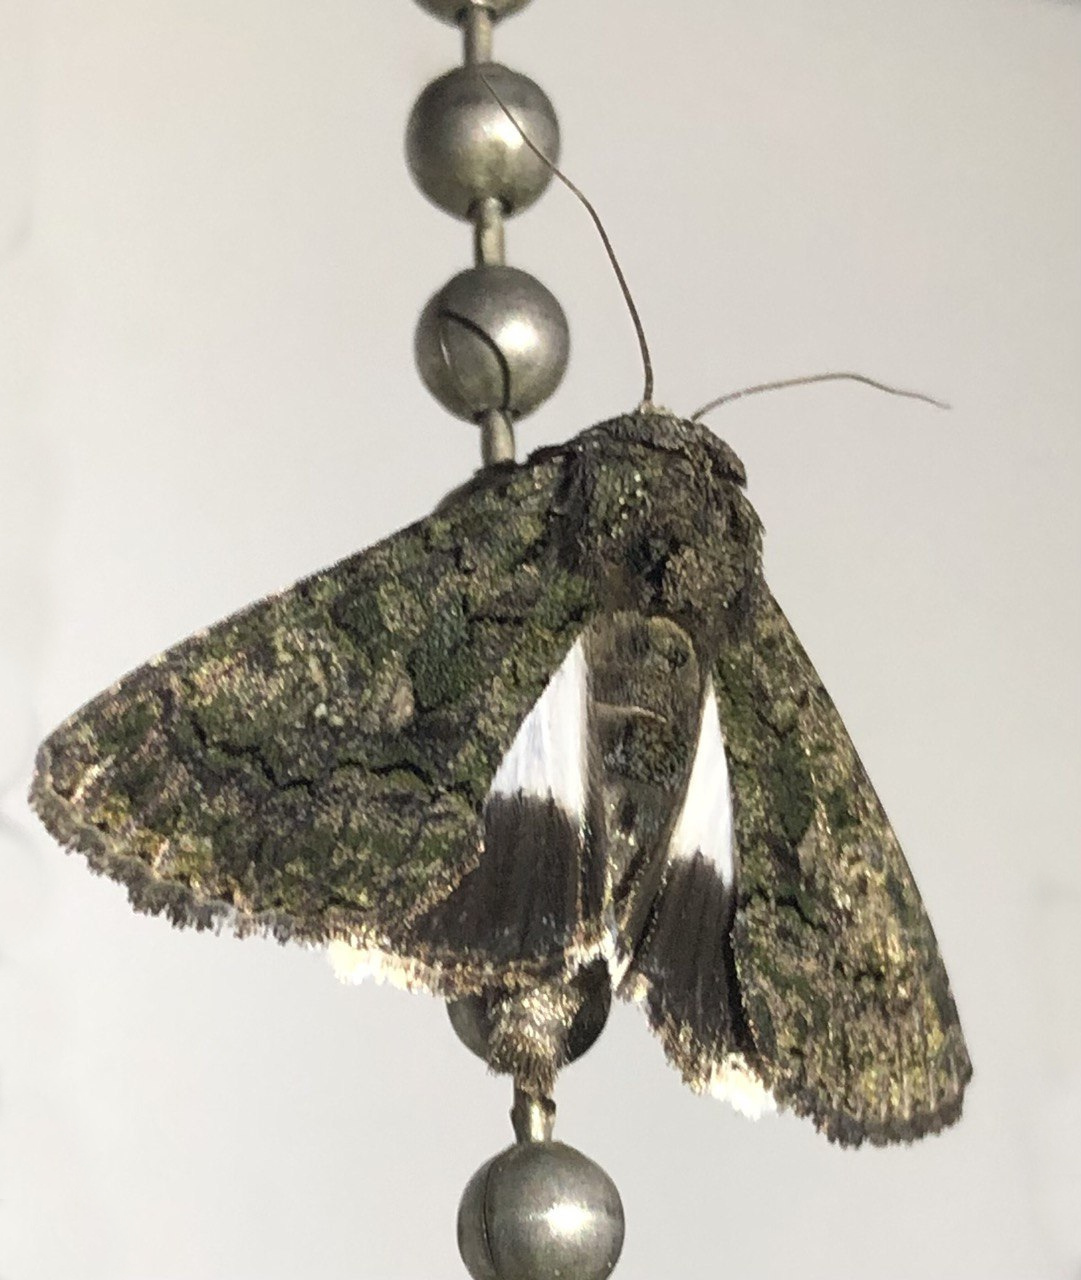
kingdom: Animalia
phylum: Arthropoda
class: Insecta
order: Lepidoptera
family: Noctuidae
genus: Aedia
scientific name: Aedia leucomelas
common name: Sorcerer
